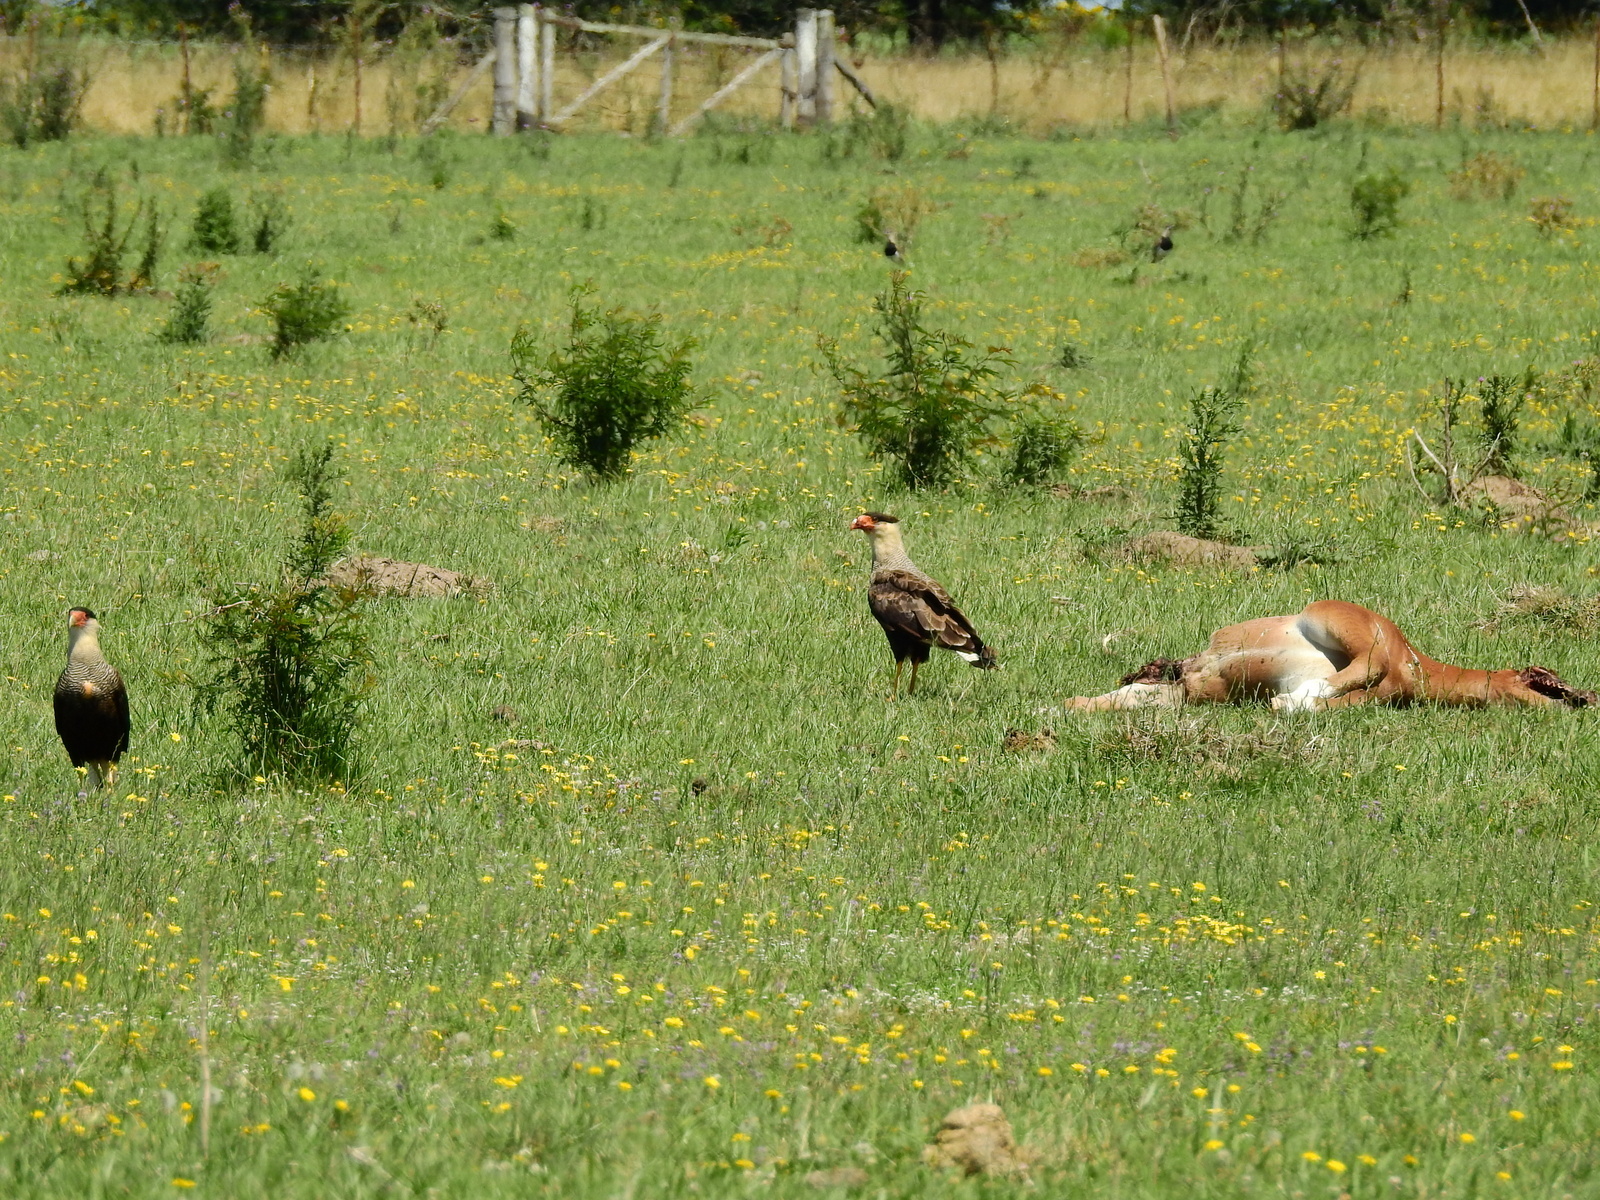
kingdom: Animalia
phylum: Chordata
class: Aves
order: Falconiformes
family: Falconidae
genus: Caracara
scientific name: Caracara plancus
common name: Southern caracara
